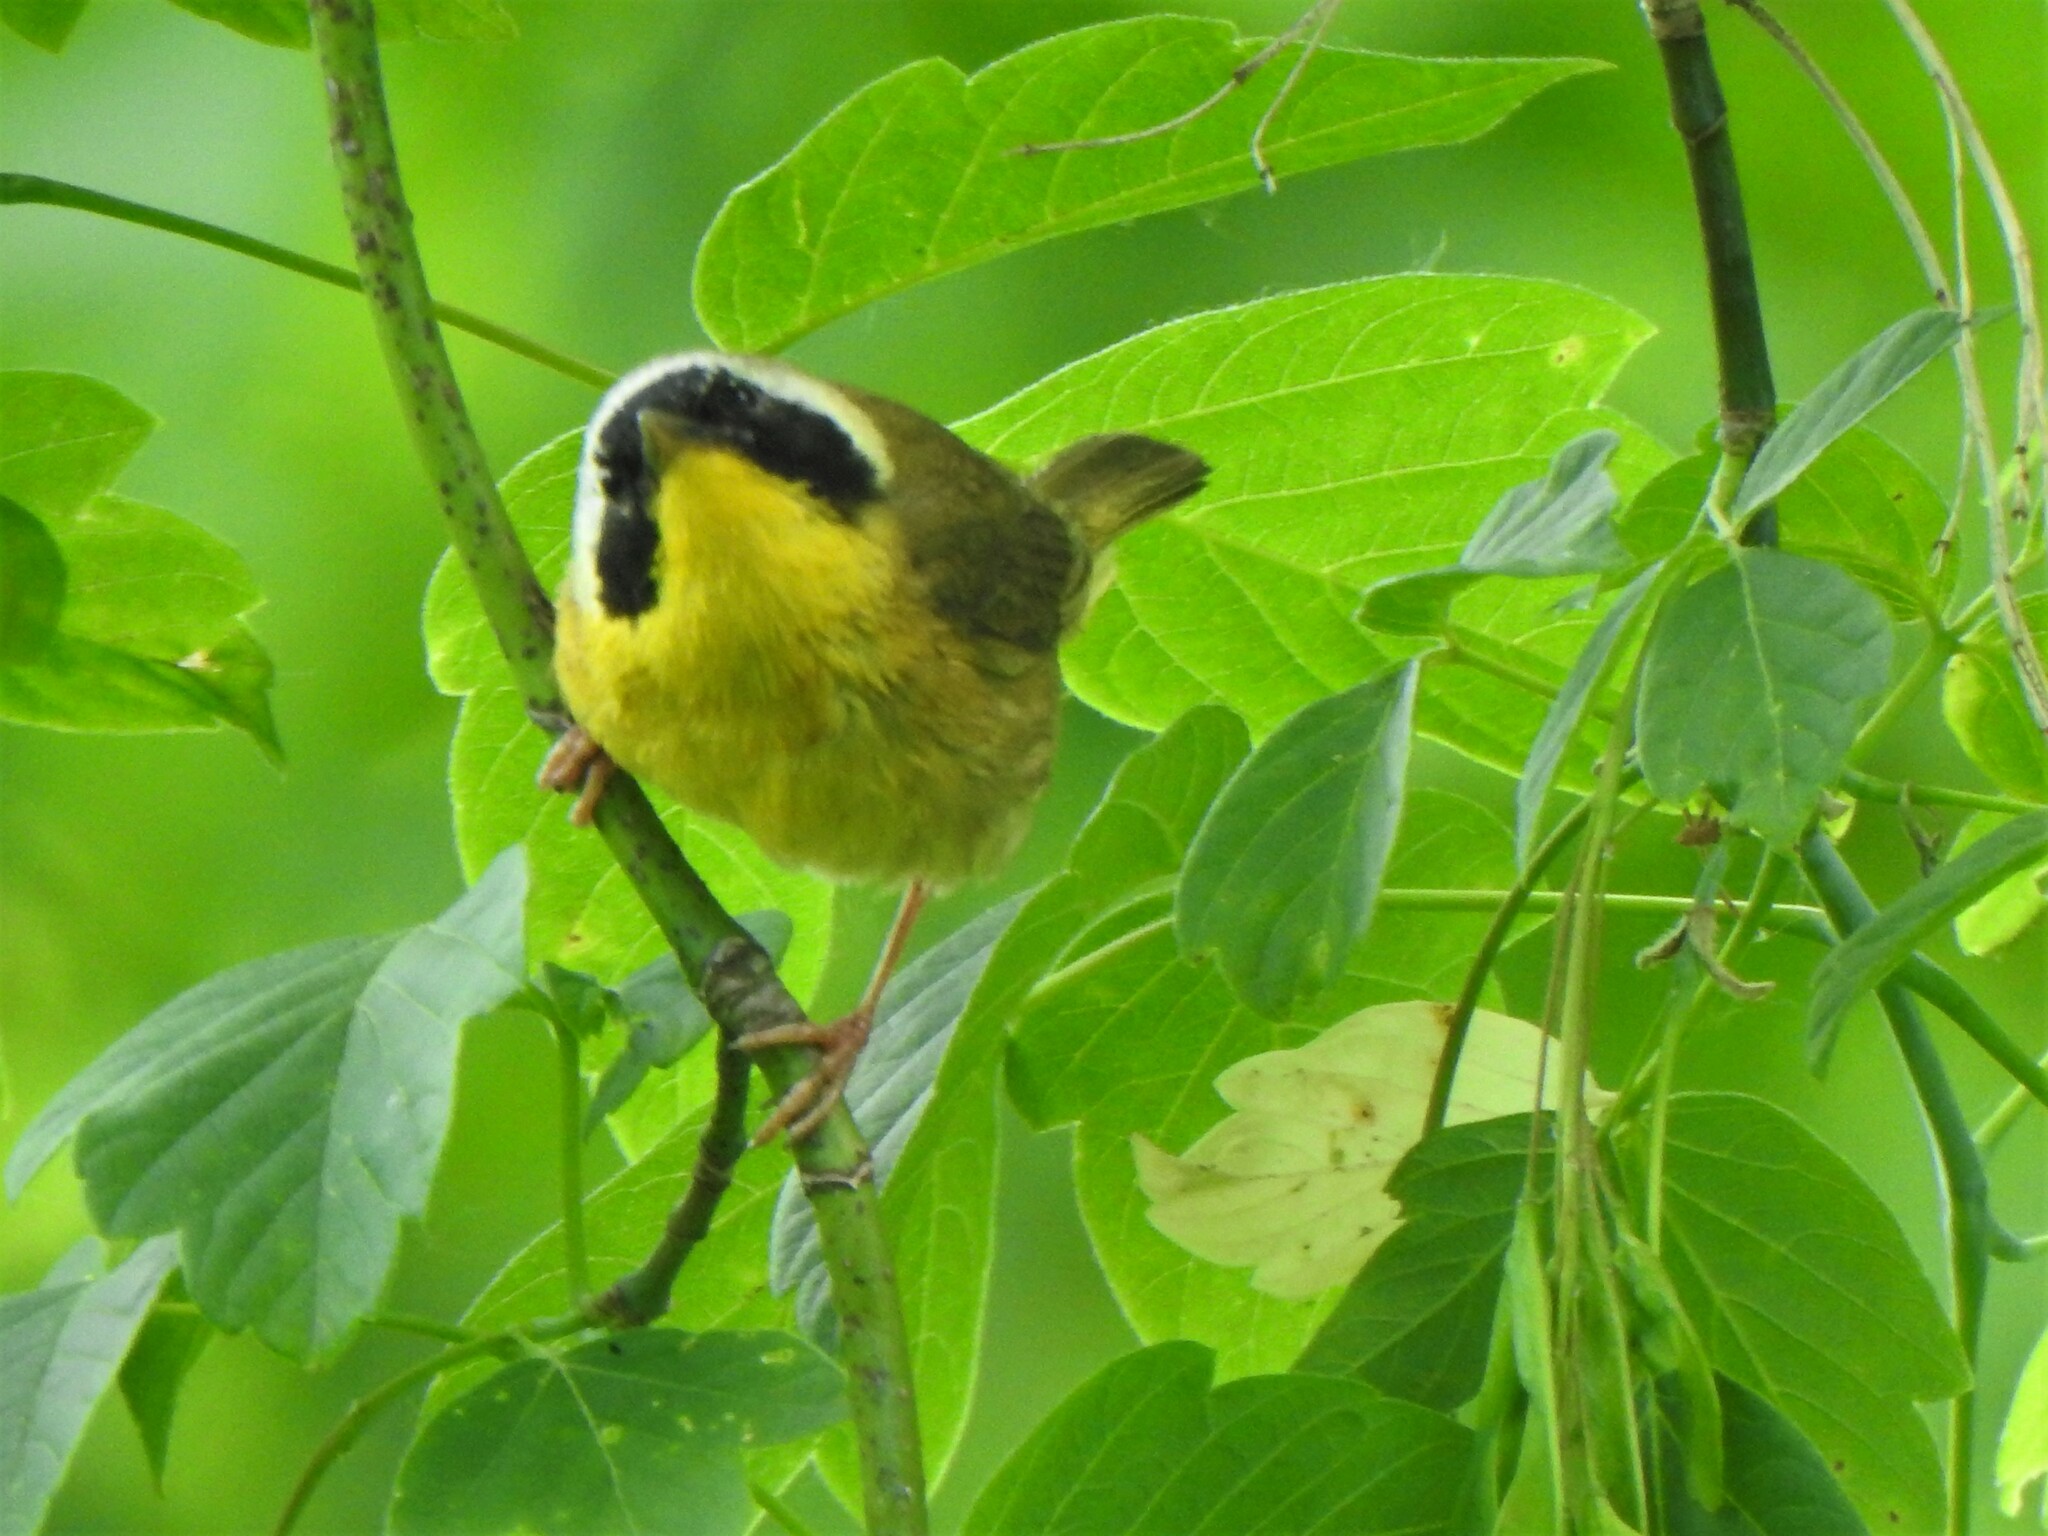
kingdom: Animalia
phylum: Chordata
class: Aves
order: Passeriformes
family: Parulidae
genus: Geothlypis
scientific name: Geothlypis trichas
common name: Common yellowthroat
